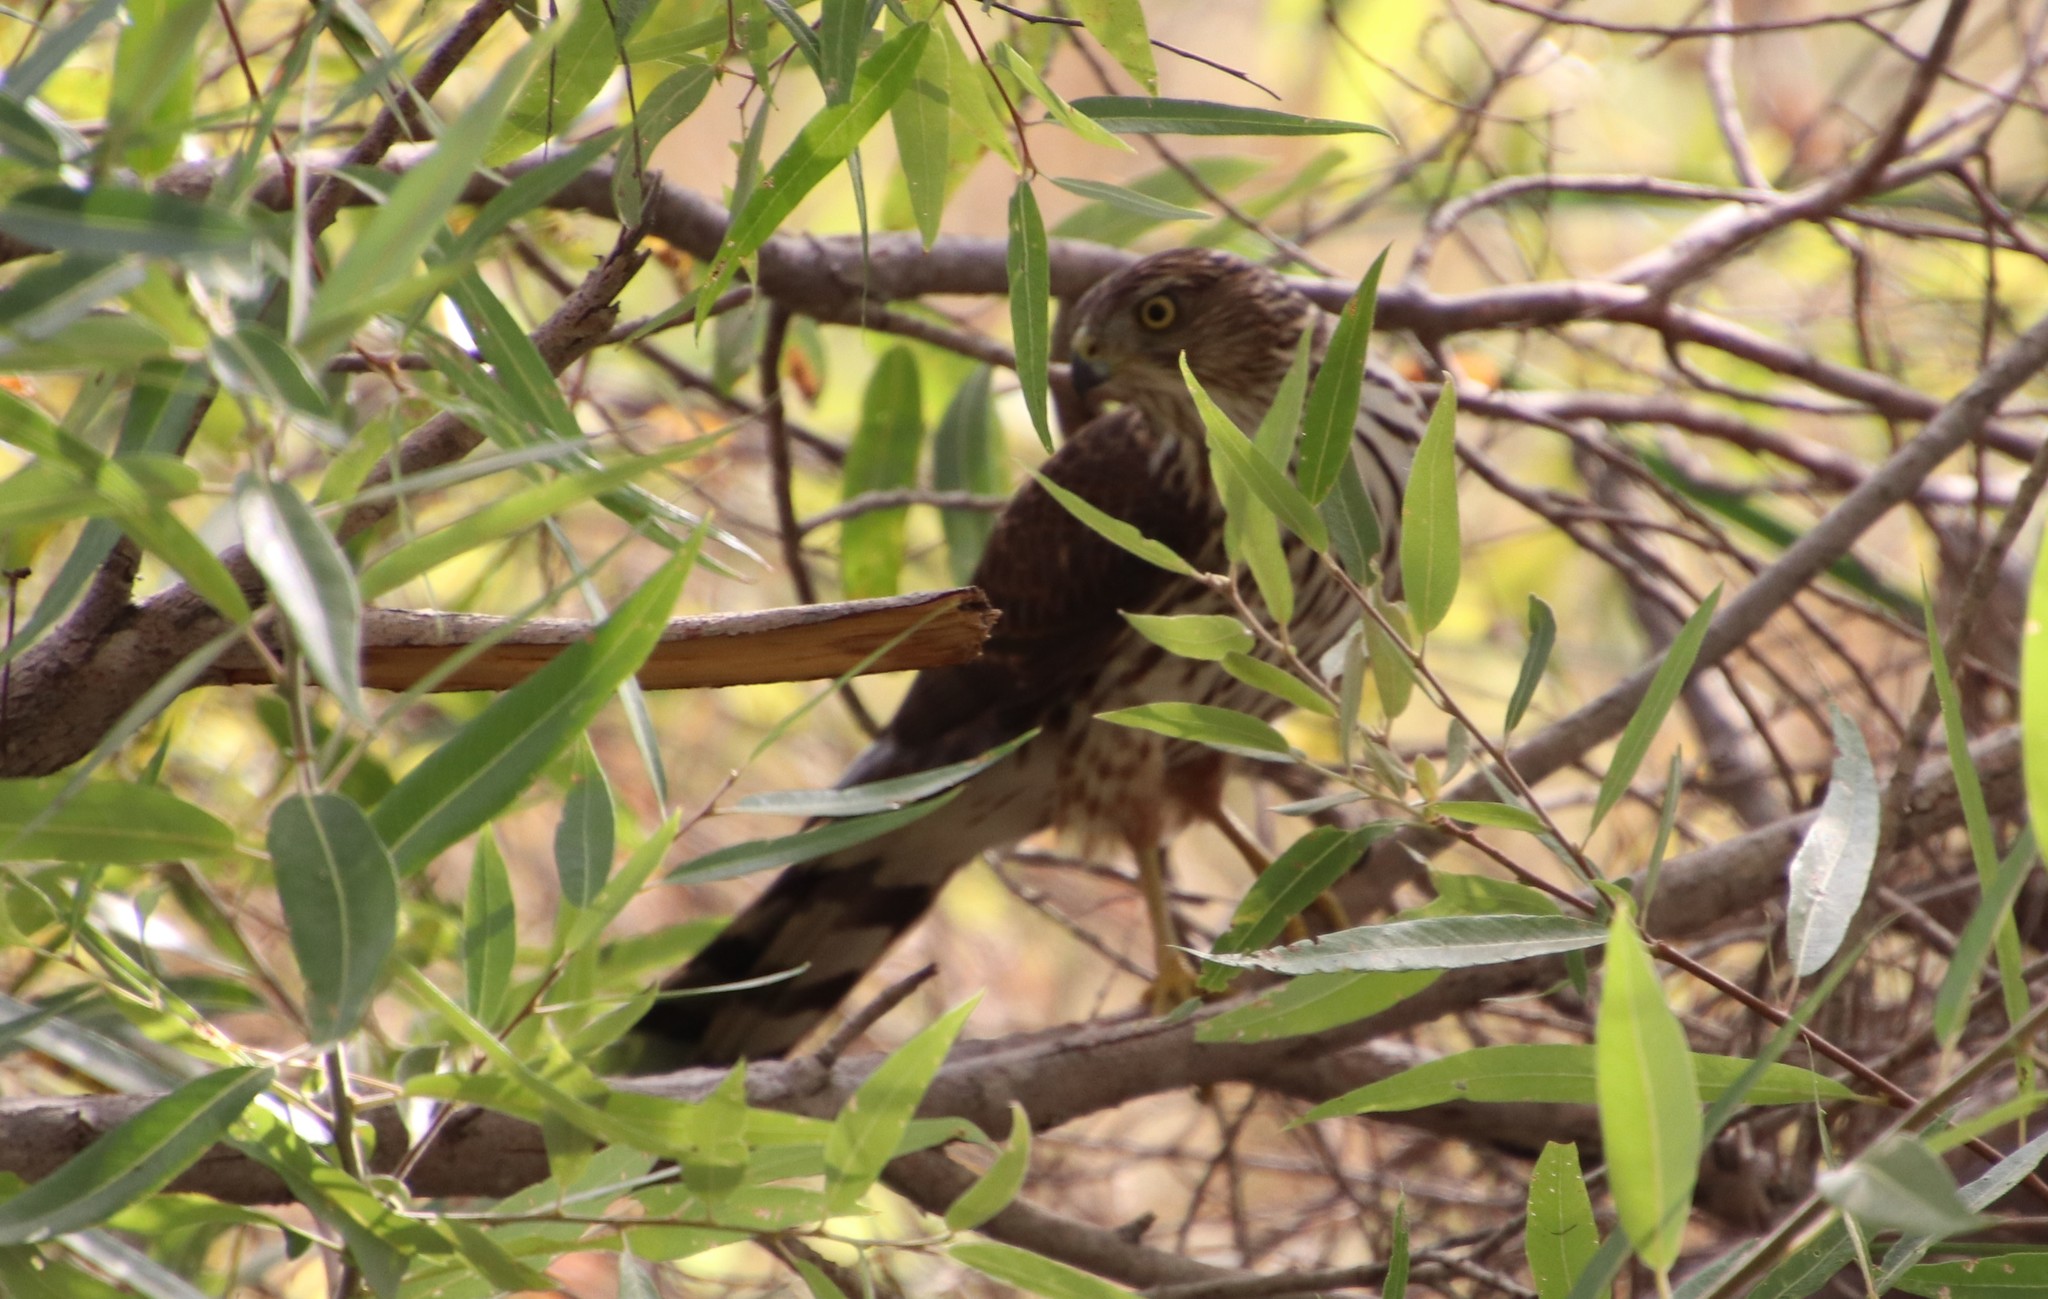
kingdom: Animalia
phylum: Chordata
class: Aves
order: Accipitriformes
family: Accipitridae
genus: Accipiter
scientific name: Accipiter cooperii
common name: Cooper's hawk
